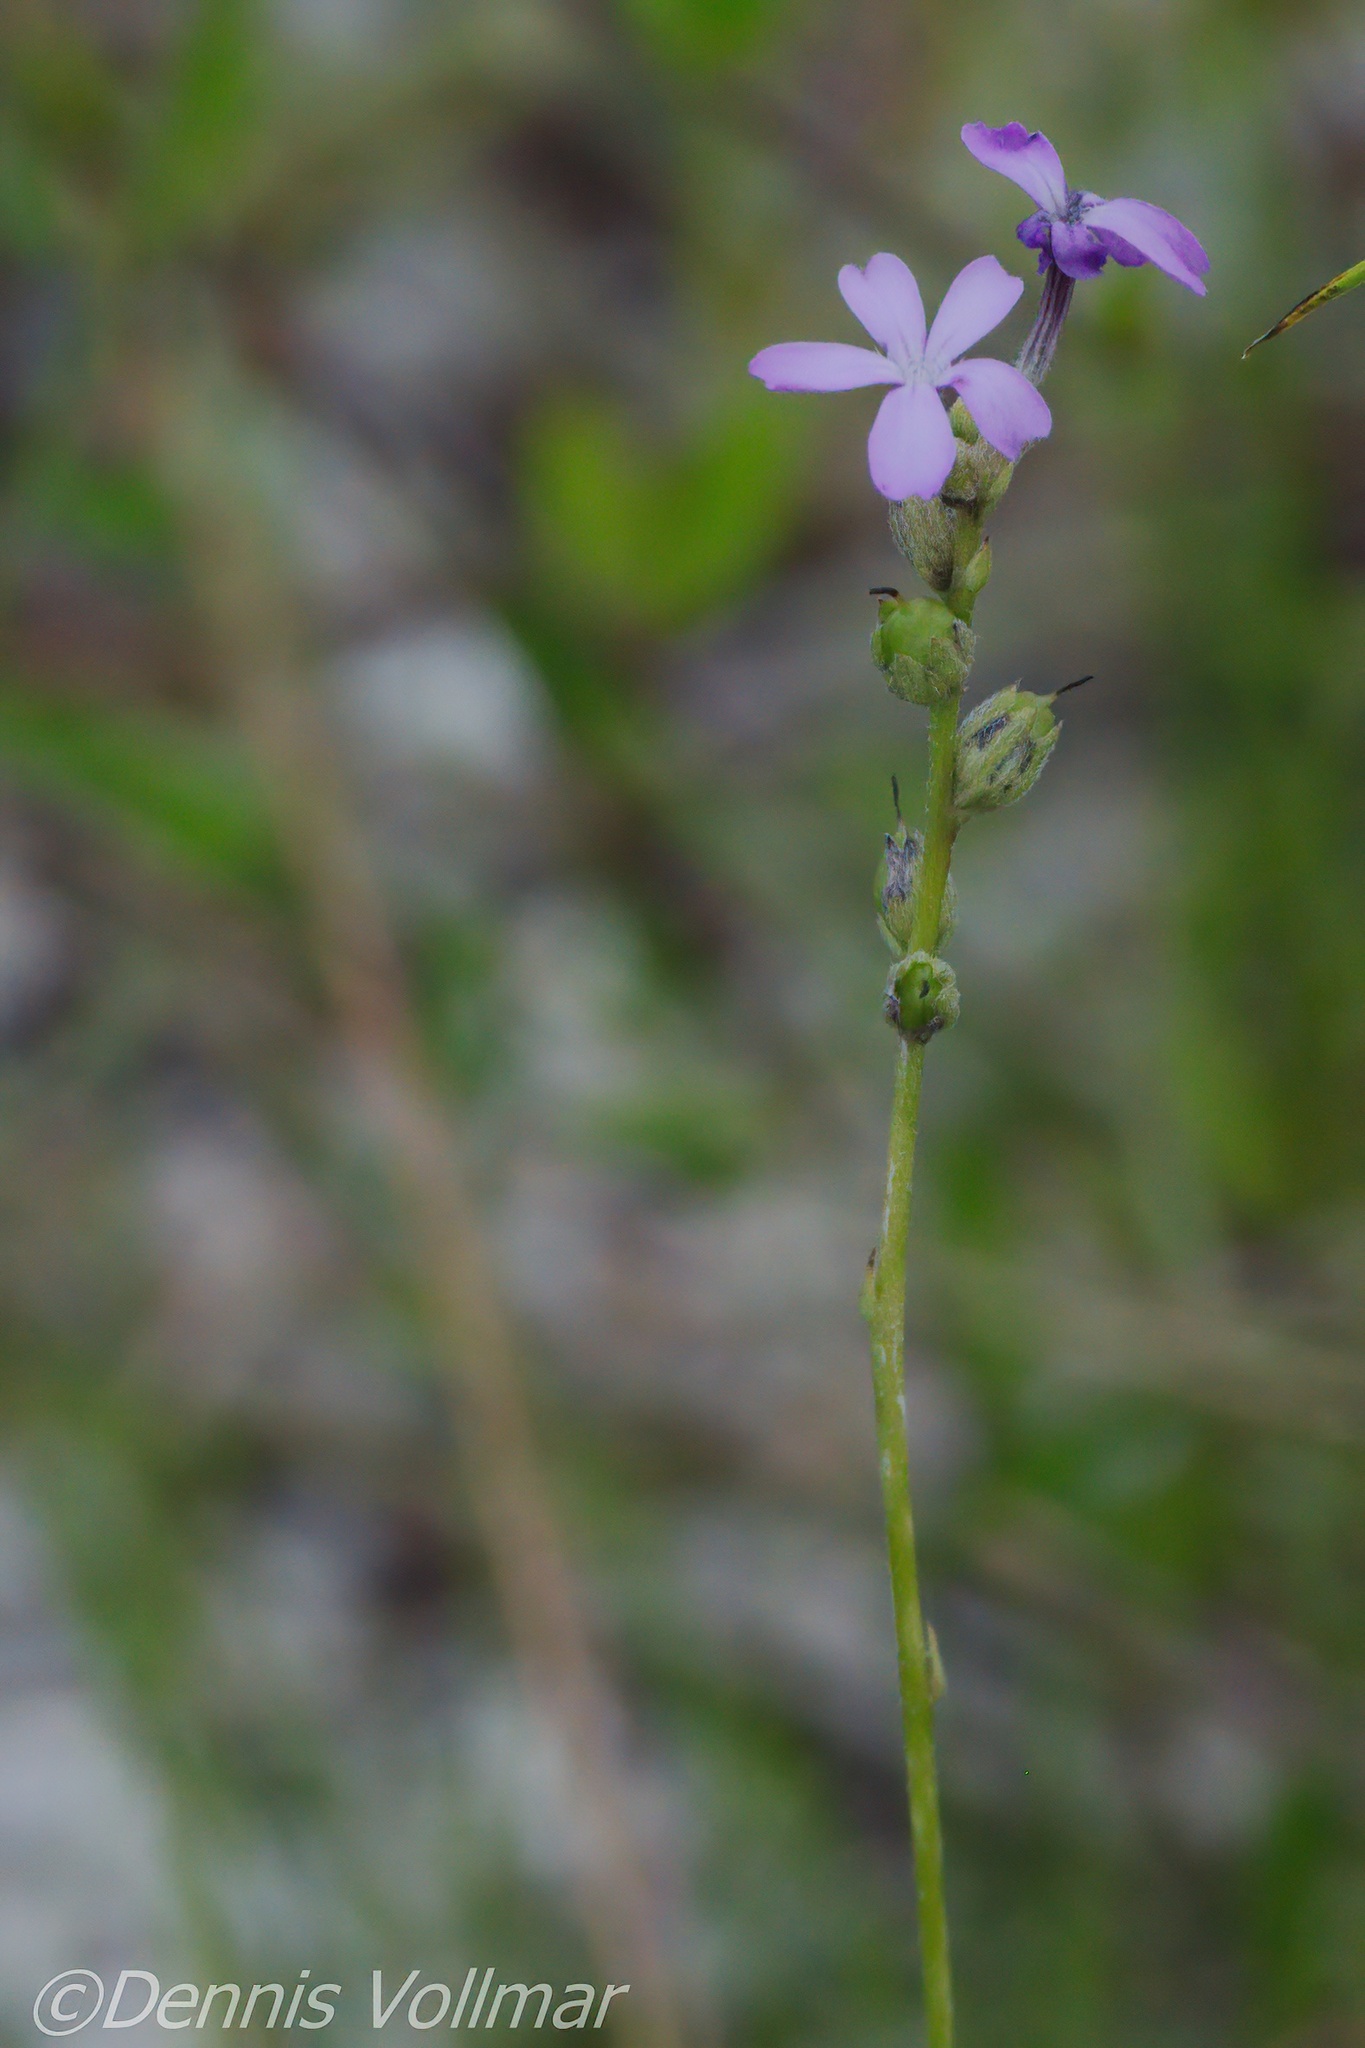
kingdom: Plantae
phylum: Tracheophyta
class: Magnoliopsida
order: Lamiales
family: Orobanchaceae
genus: Buchnera
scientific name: Buchnera floridana
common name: Florida bluehearts
